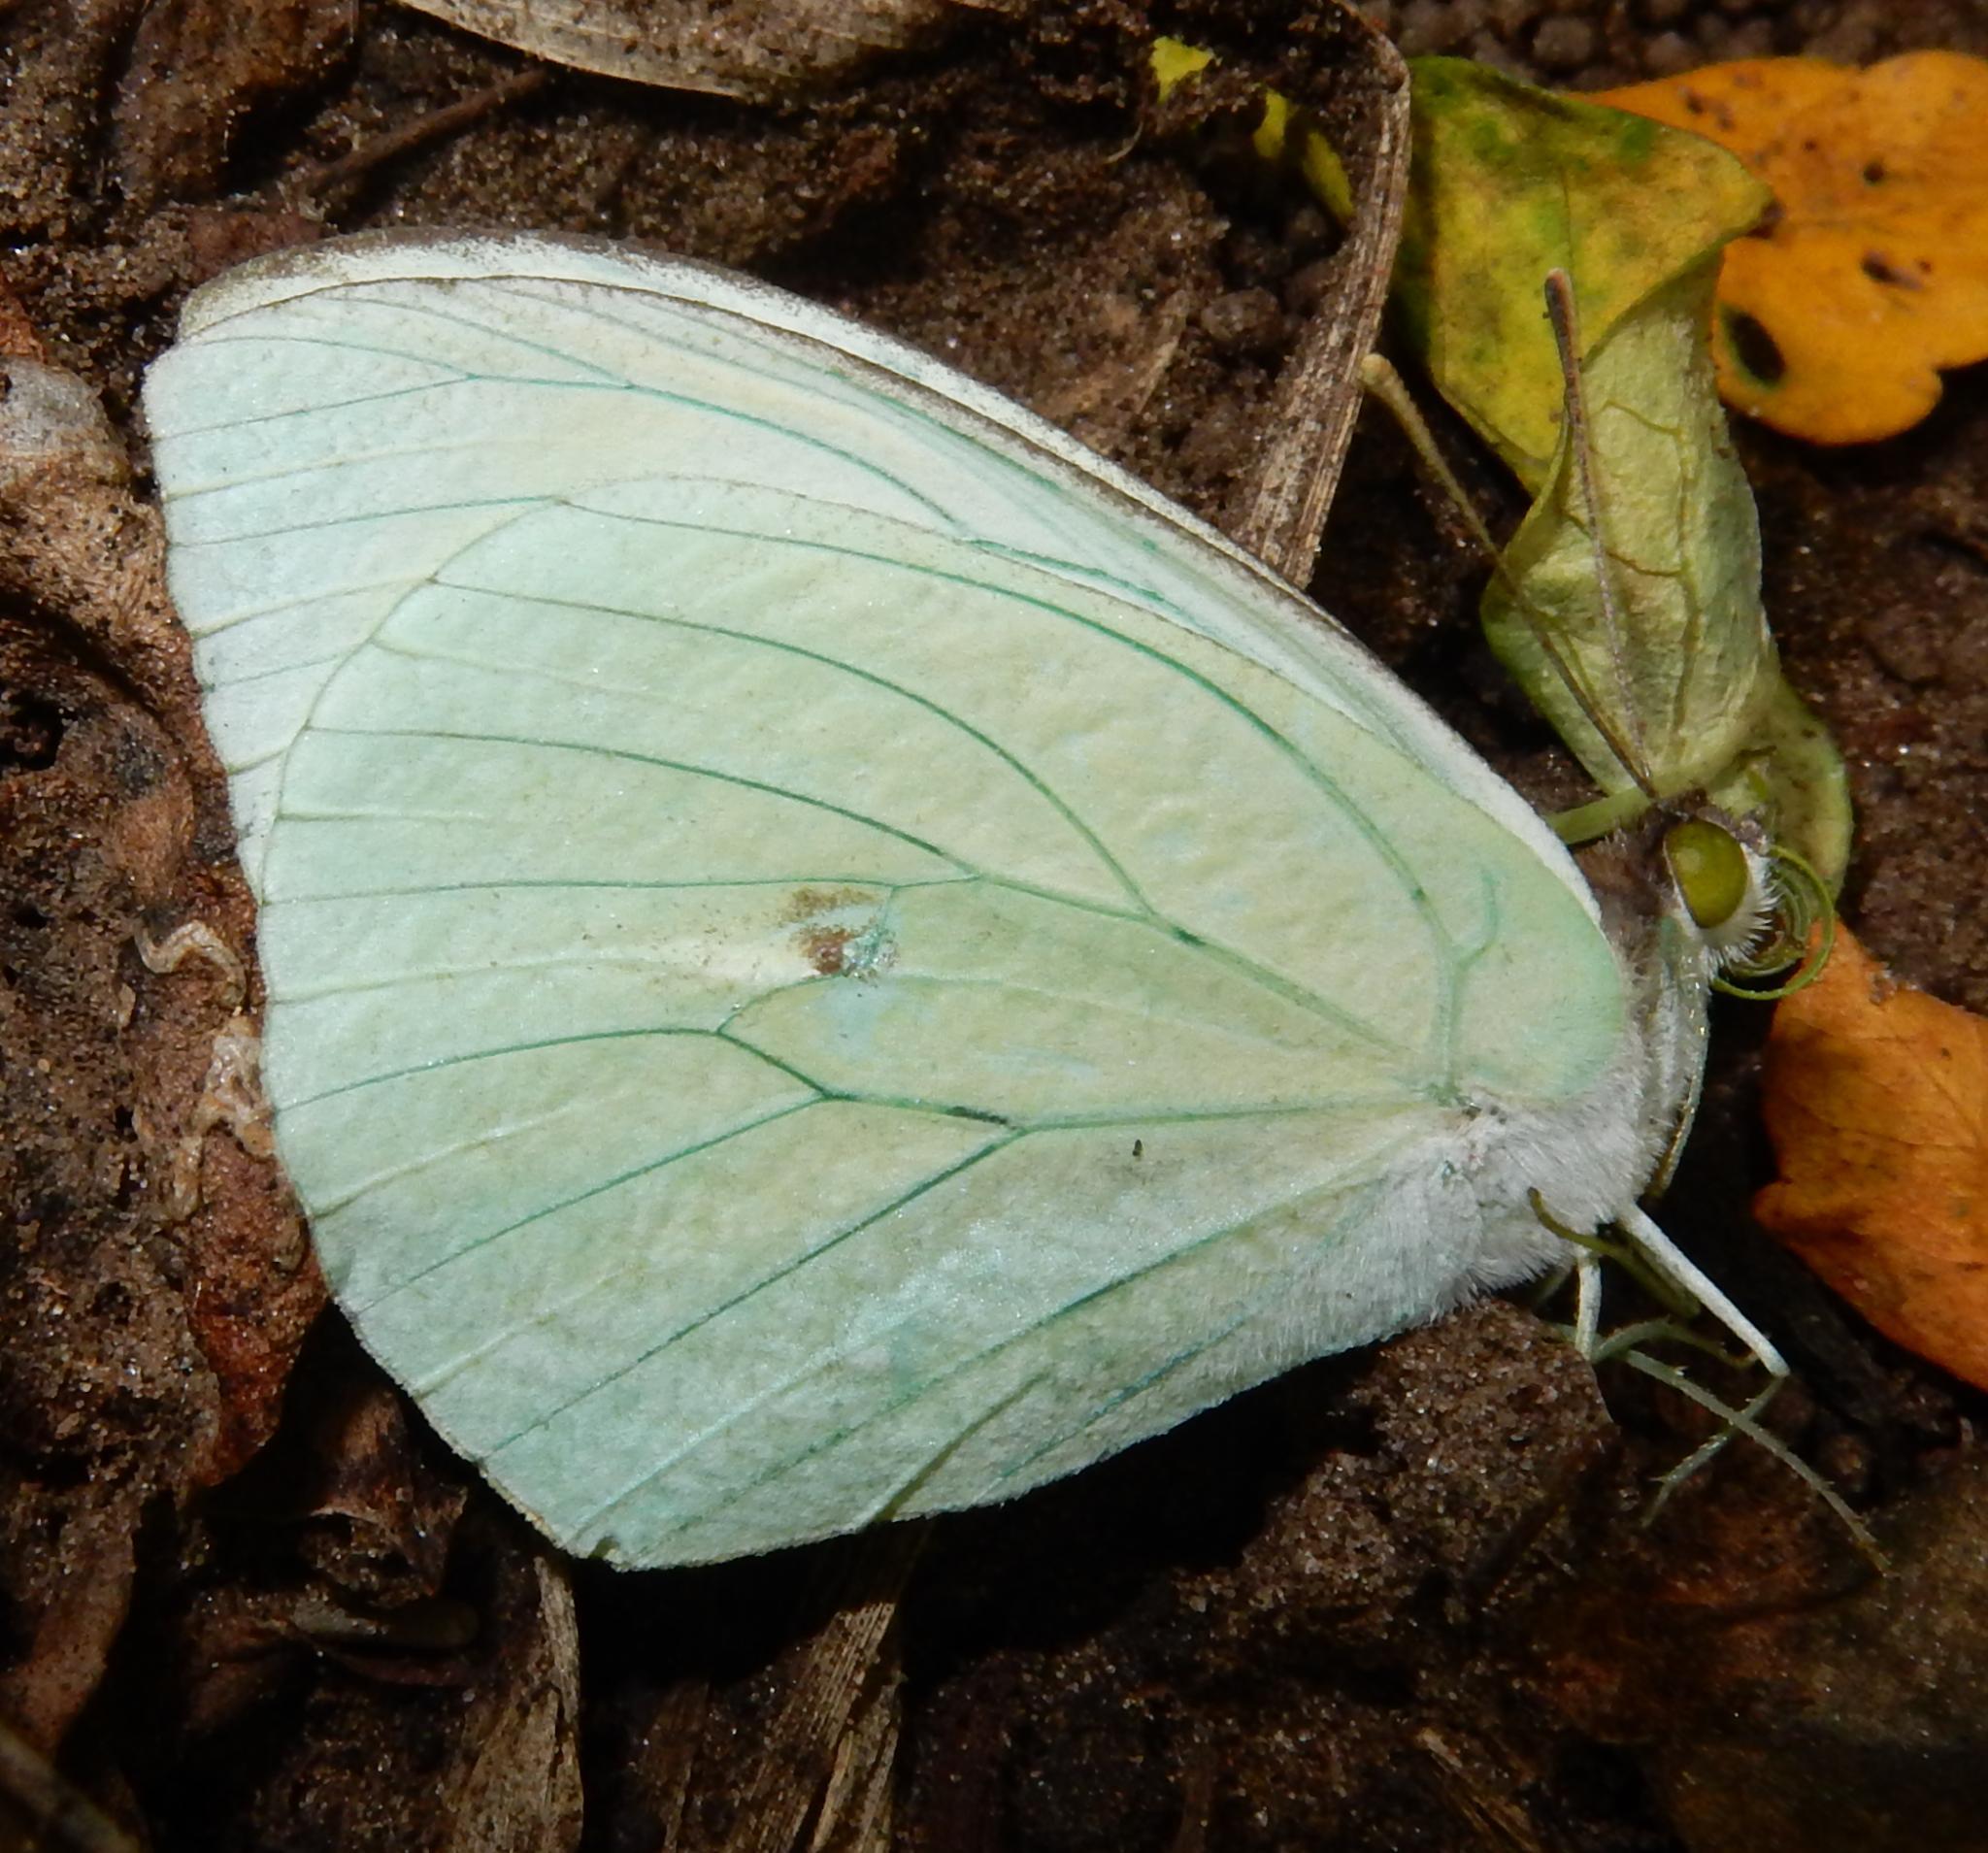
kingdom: Animalia
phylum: Arthropoda
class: Insecta
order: Lepidoptera
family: Pieridae
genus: Nepheronia
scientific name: Nepheronia buquetii
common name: Plain vagrant
